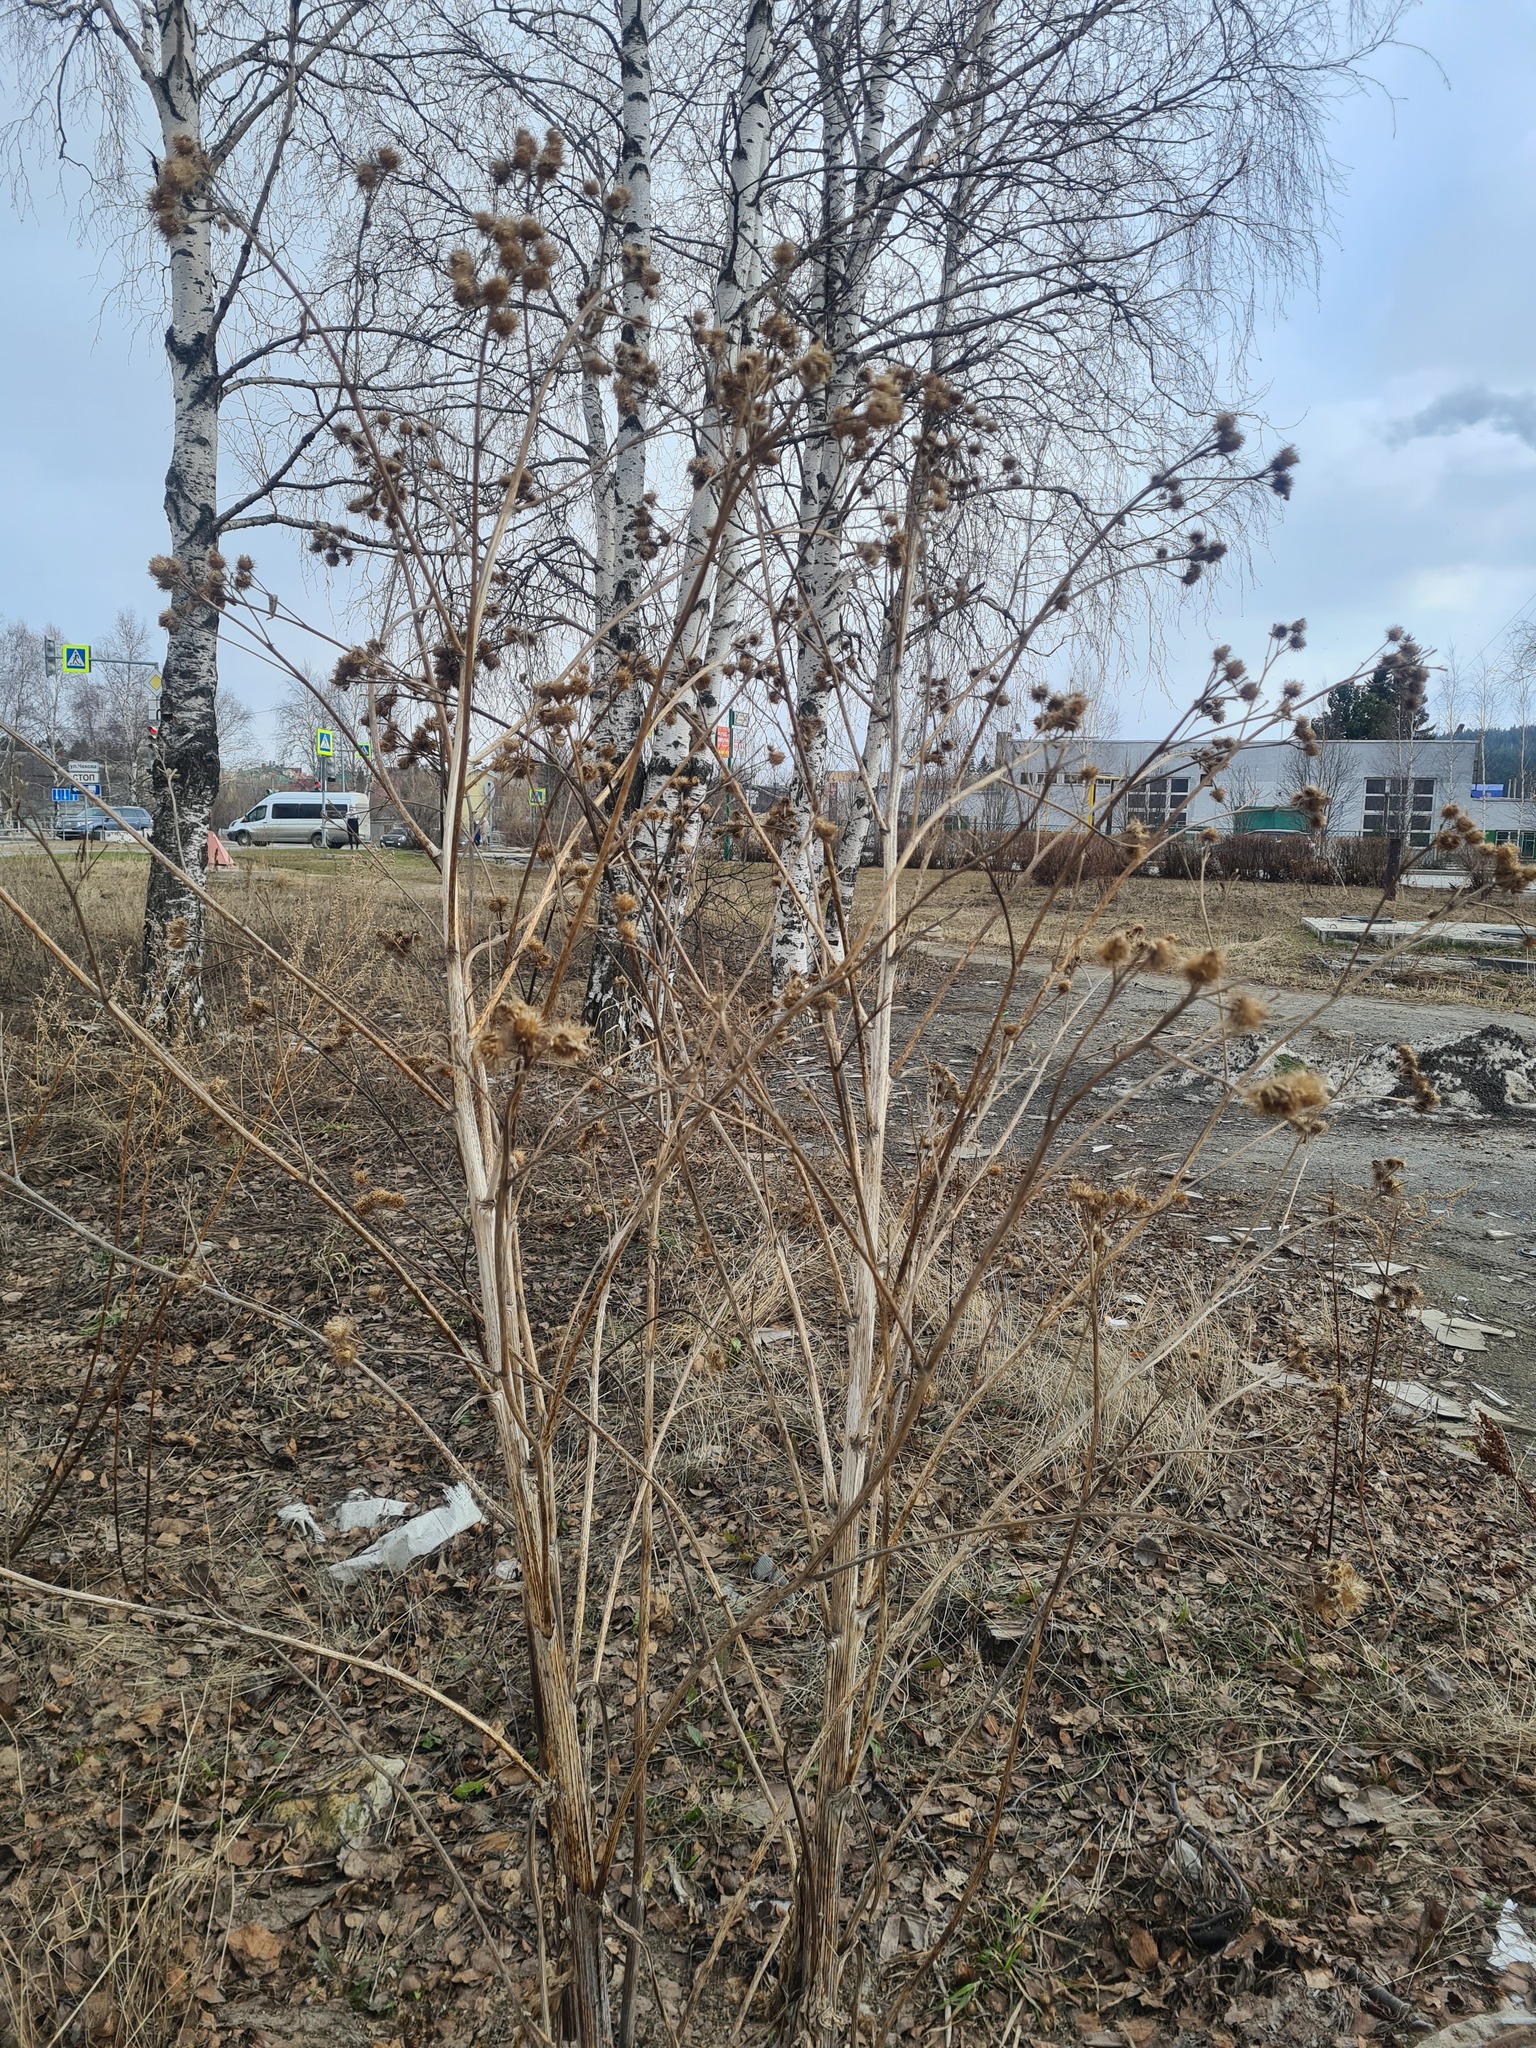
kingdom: Plantae
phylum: Tracheophyta
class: Magnoliopsida
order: Asterales
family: Asteraceae
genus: Arctium
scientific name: Arctium tomentosum
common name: Woolly burdock
